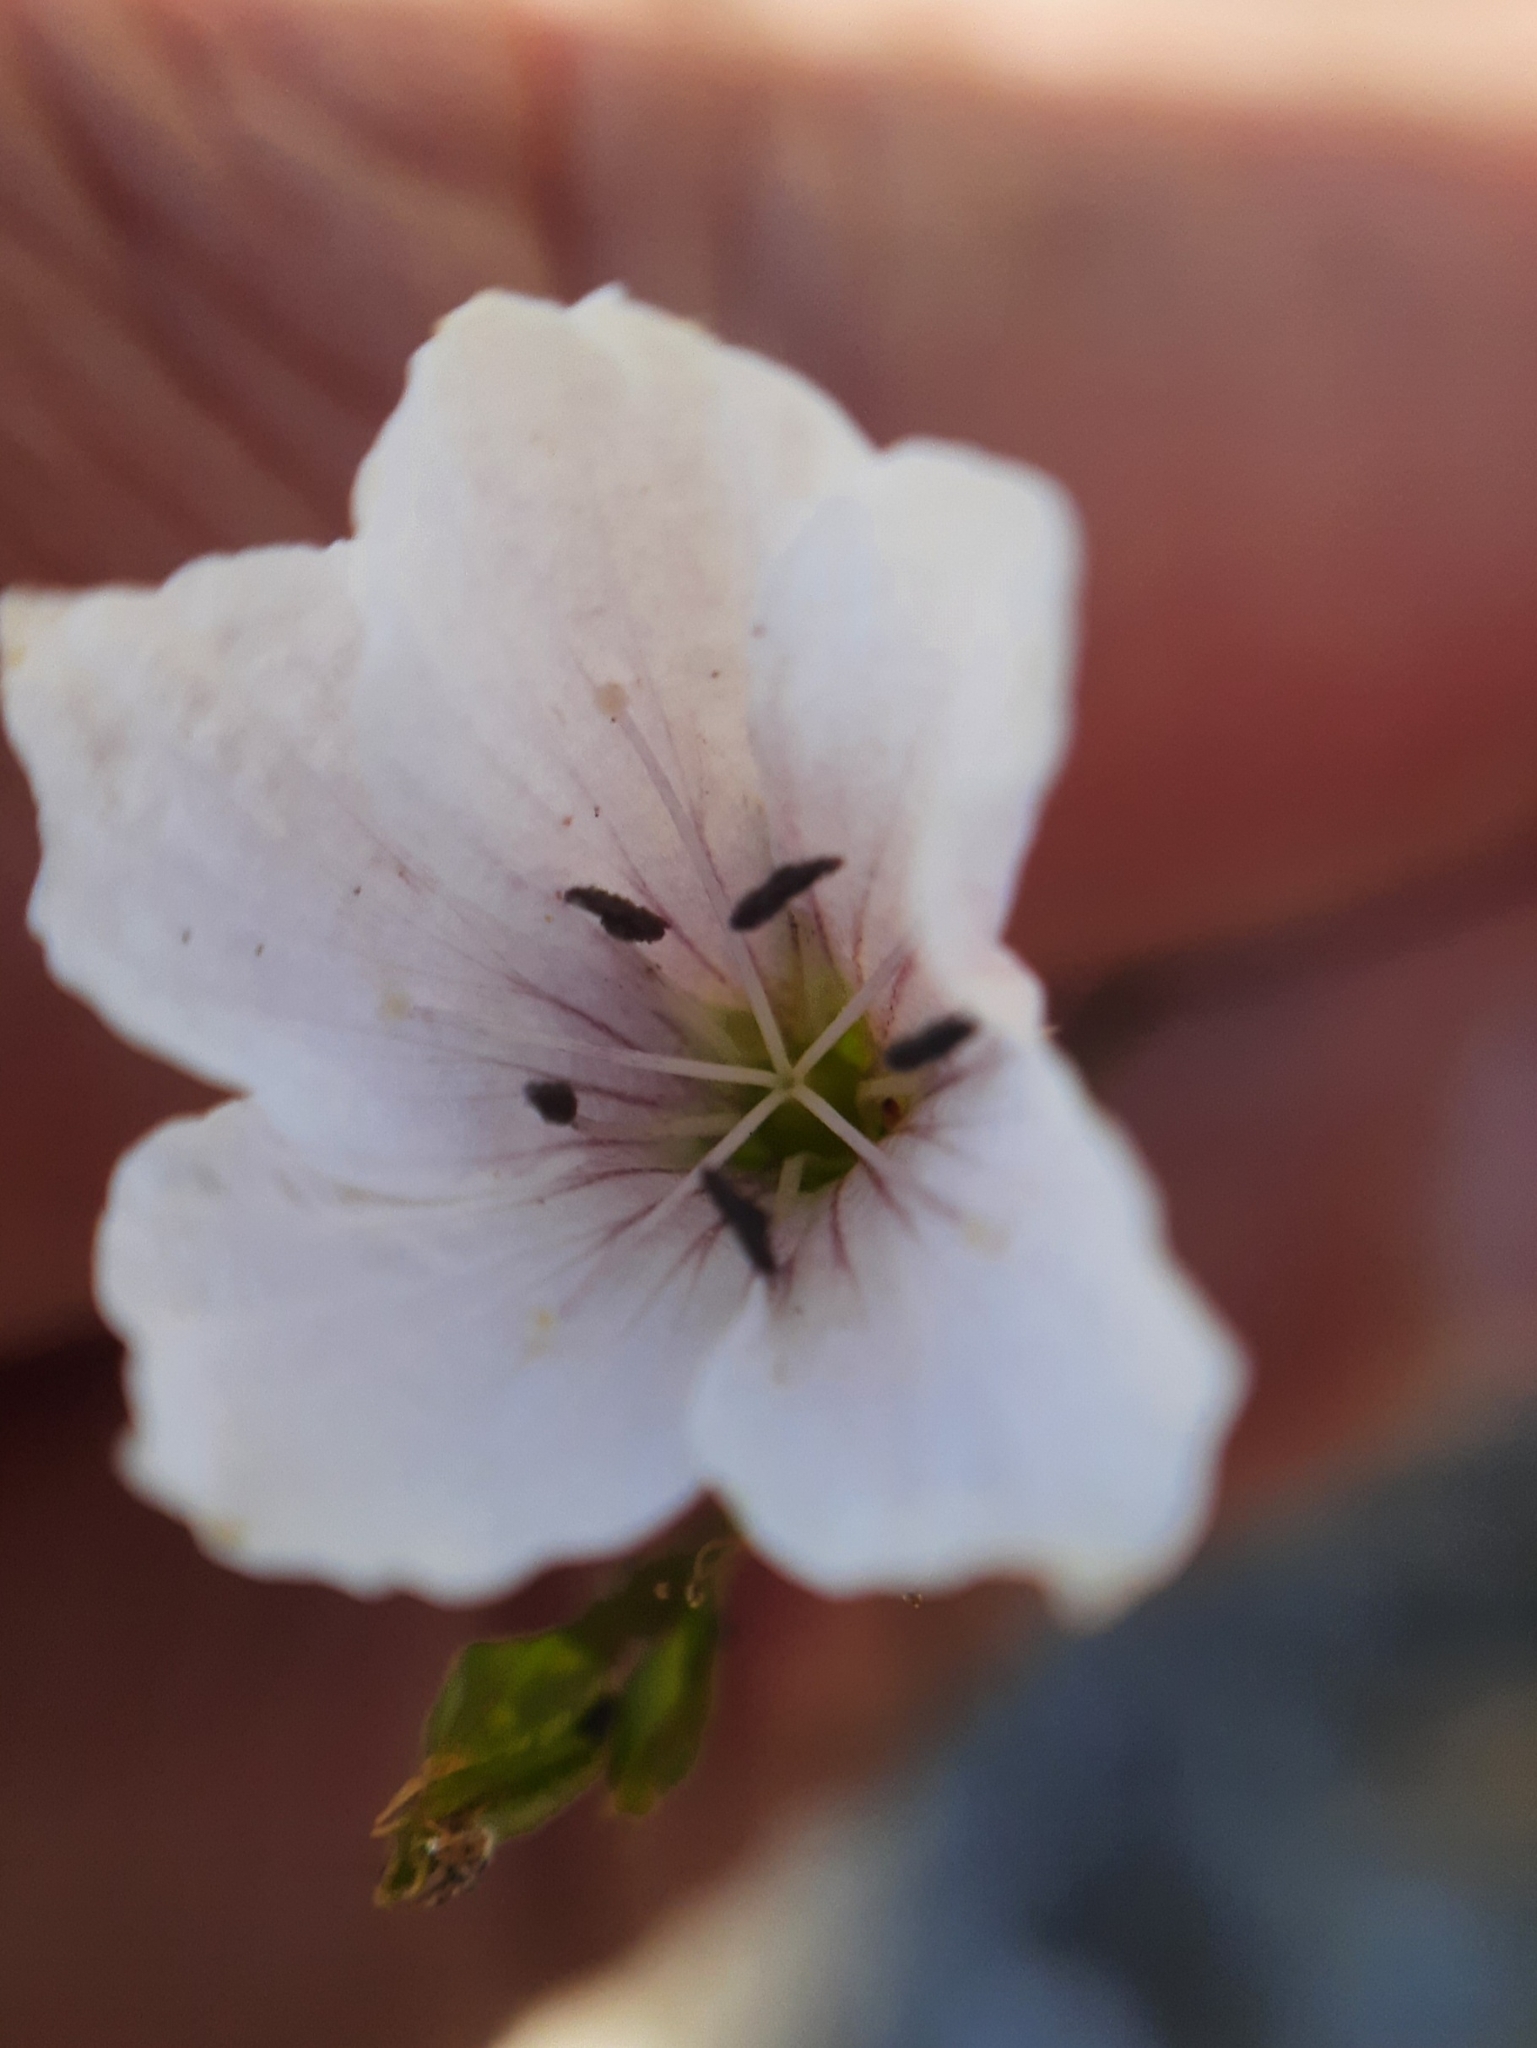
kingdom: Plantae
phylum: Tracheophyta
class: Magnoliopsida
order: Malpighiales
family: Linaceae
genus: Linum
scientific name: Linum tenuifolium
